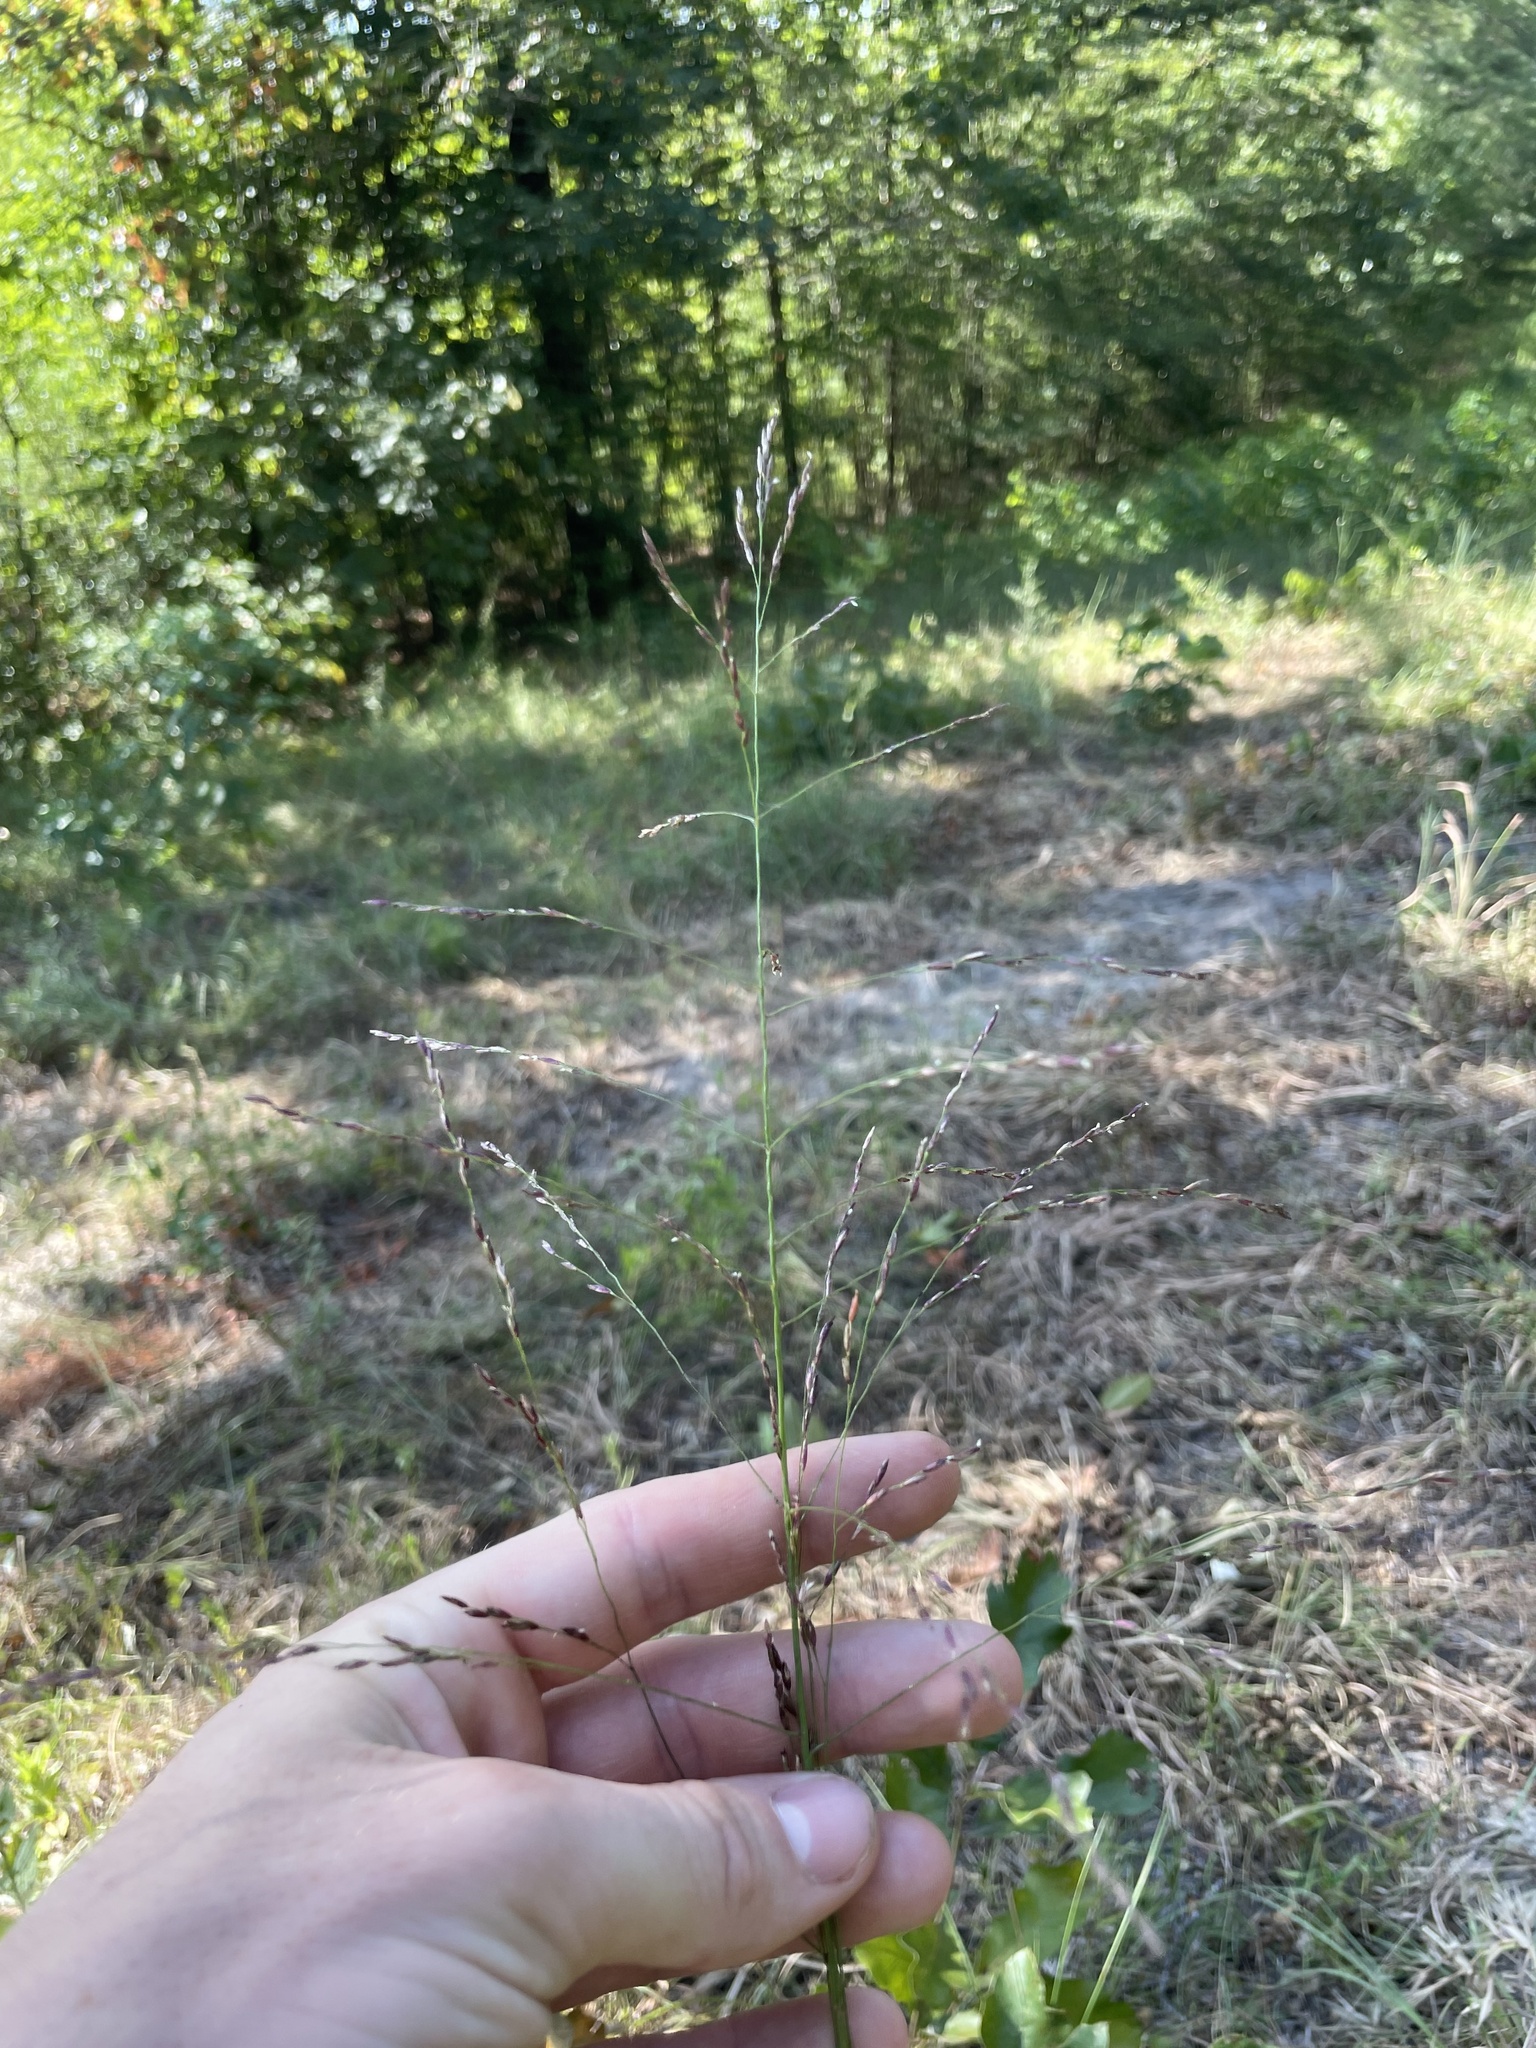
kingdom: Plantae
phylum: Tracheophyta
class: Liliopsida
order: Poales
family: Poaceae
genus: Tridens
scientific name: Tridens flavus
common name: Purpletop
